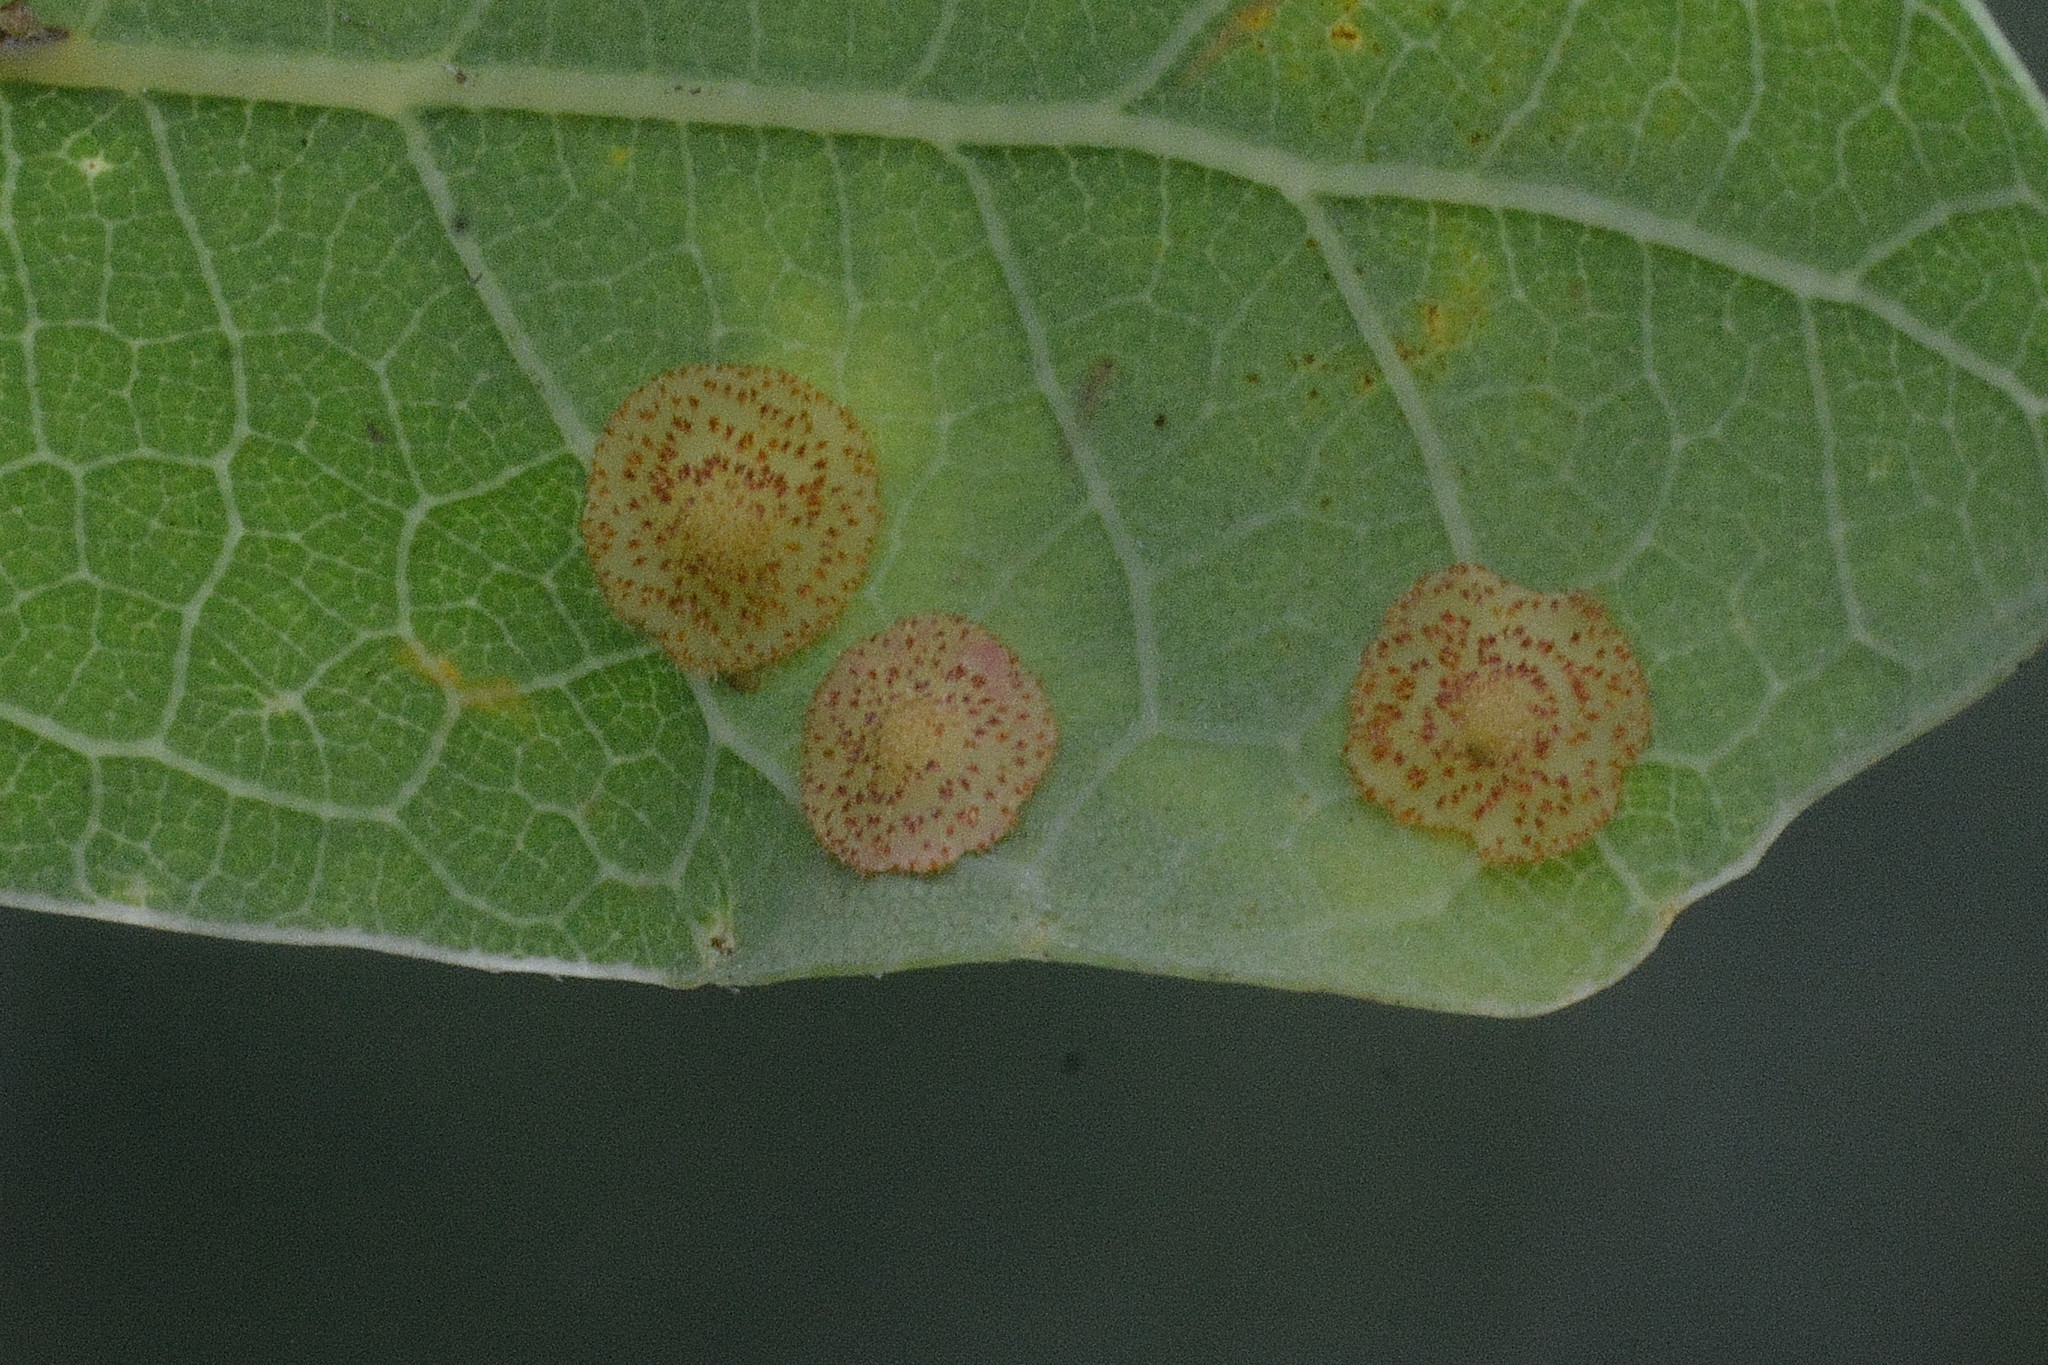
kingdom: Animalia
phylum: Arthropoda
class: Insecta
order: Hymenoptera
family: Cynipidae
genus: Neuroterus
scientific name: Neuroterus quercusbaccarum
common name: Common spangle gall
